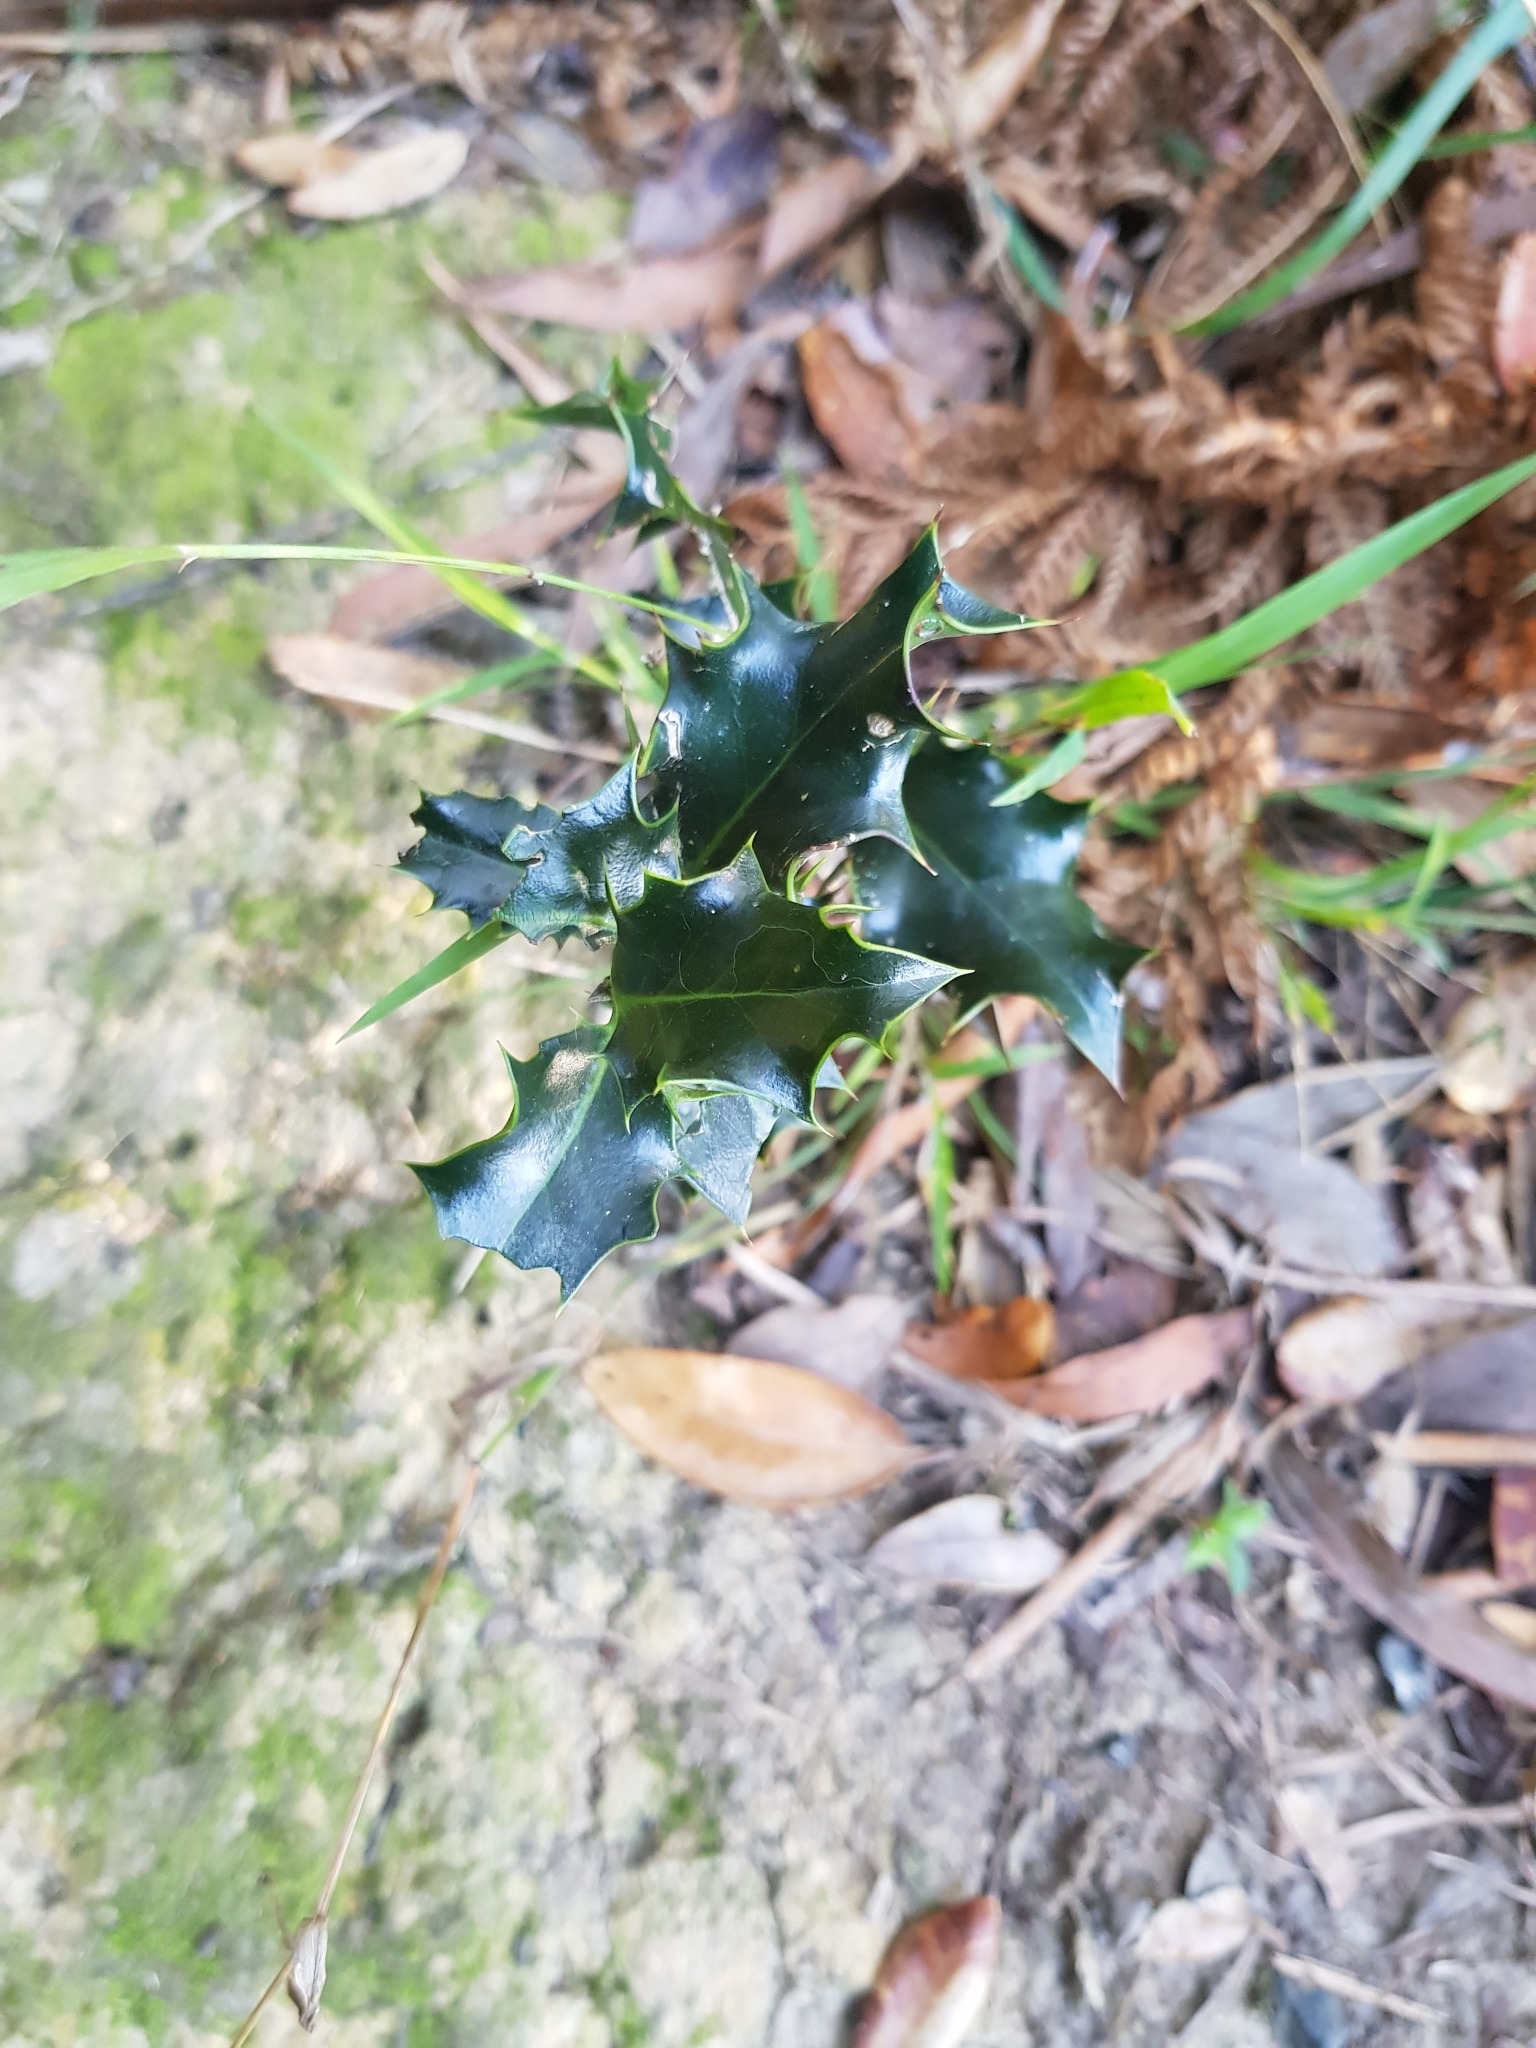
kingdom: Plantae
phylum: Tracheophyta
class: Magnoliopsida
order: Aquifoliales
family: Aquifoliaceae
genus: Ilex
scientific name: Ilex aquifolium
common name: English holly
